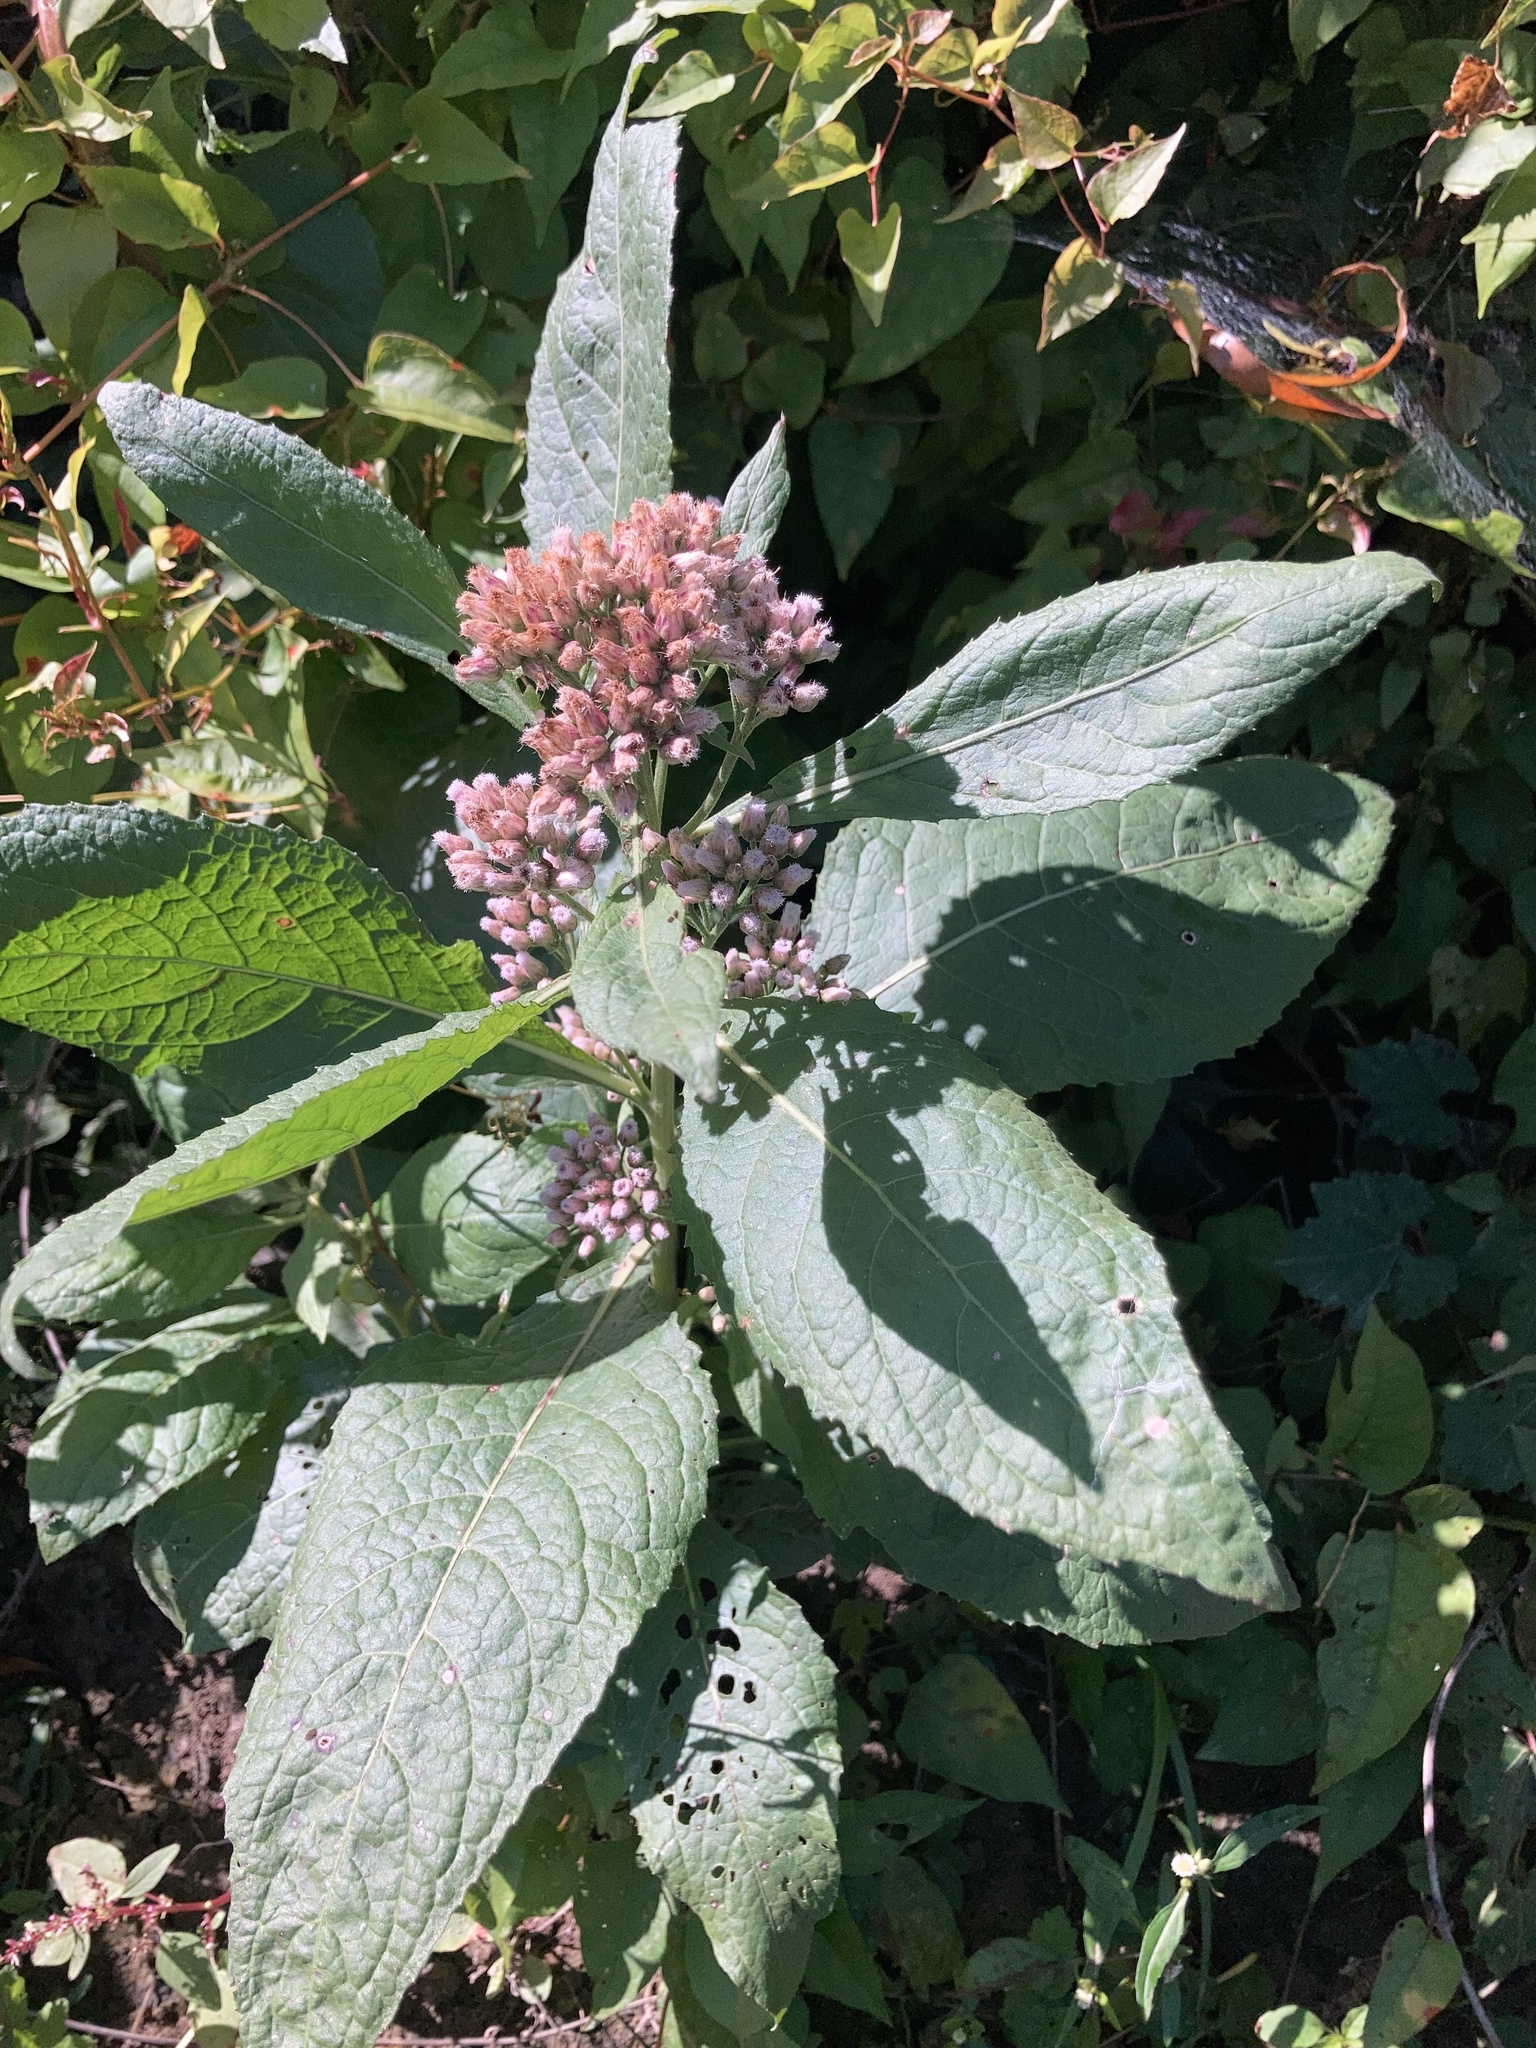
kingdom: Plantae
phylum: Tracheophyta
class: Magnoliopsida
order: Asterales
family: Asteraceae
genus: Pluchea
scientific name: Pluchea camphorata
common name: Camphor pluchea
